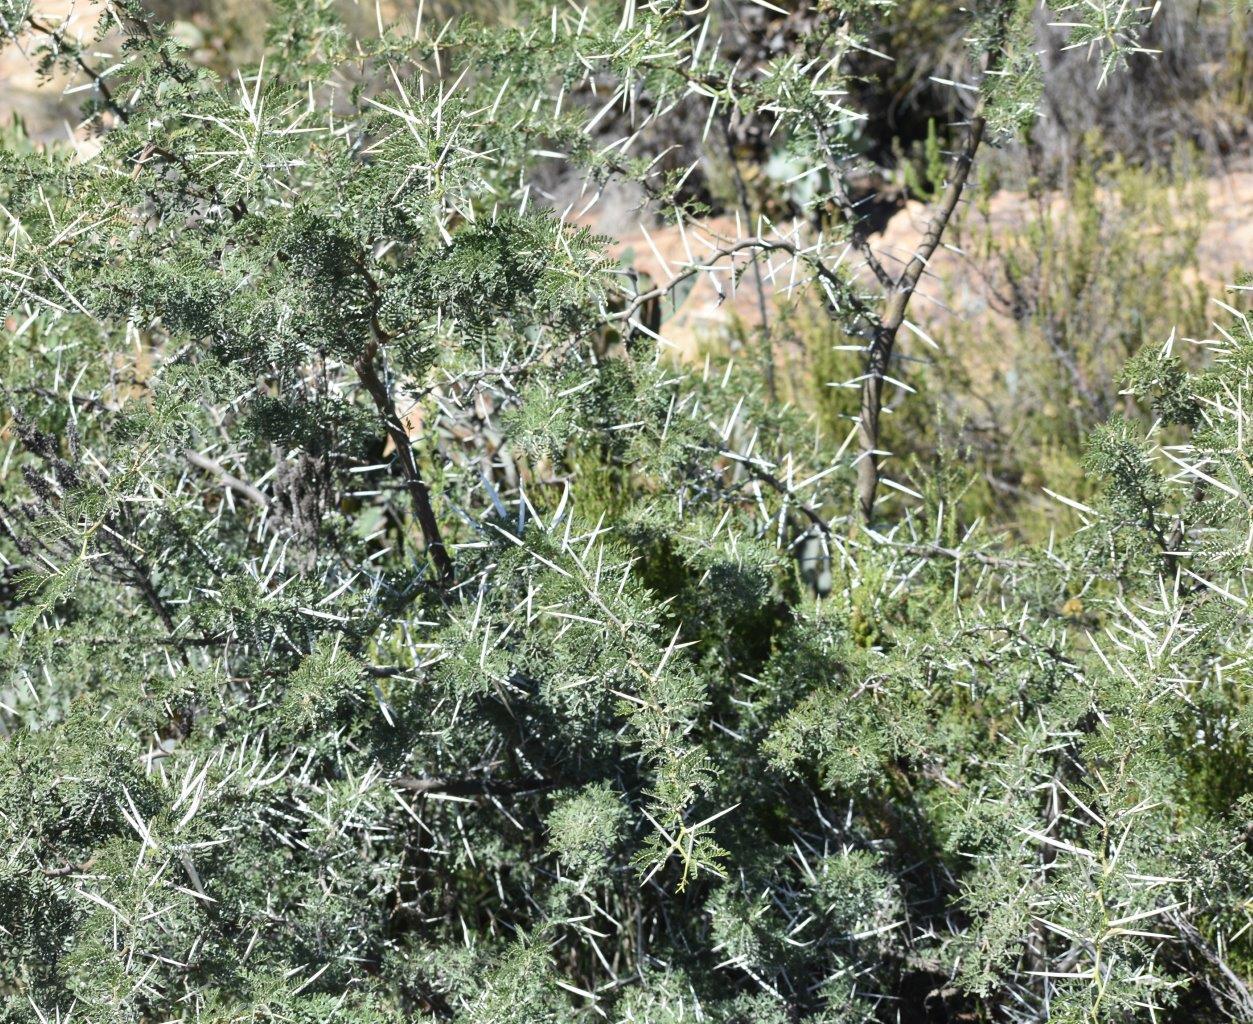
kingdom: Plantae
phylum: Tracheophyta
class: Magnoliopsida
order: Fabales
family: Fabaceae
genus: Vachellia
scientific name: Vachellia karroo
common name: Sweet thorn
